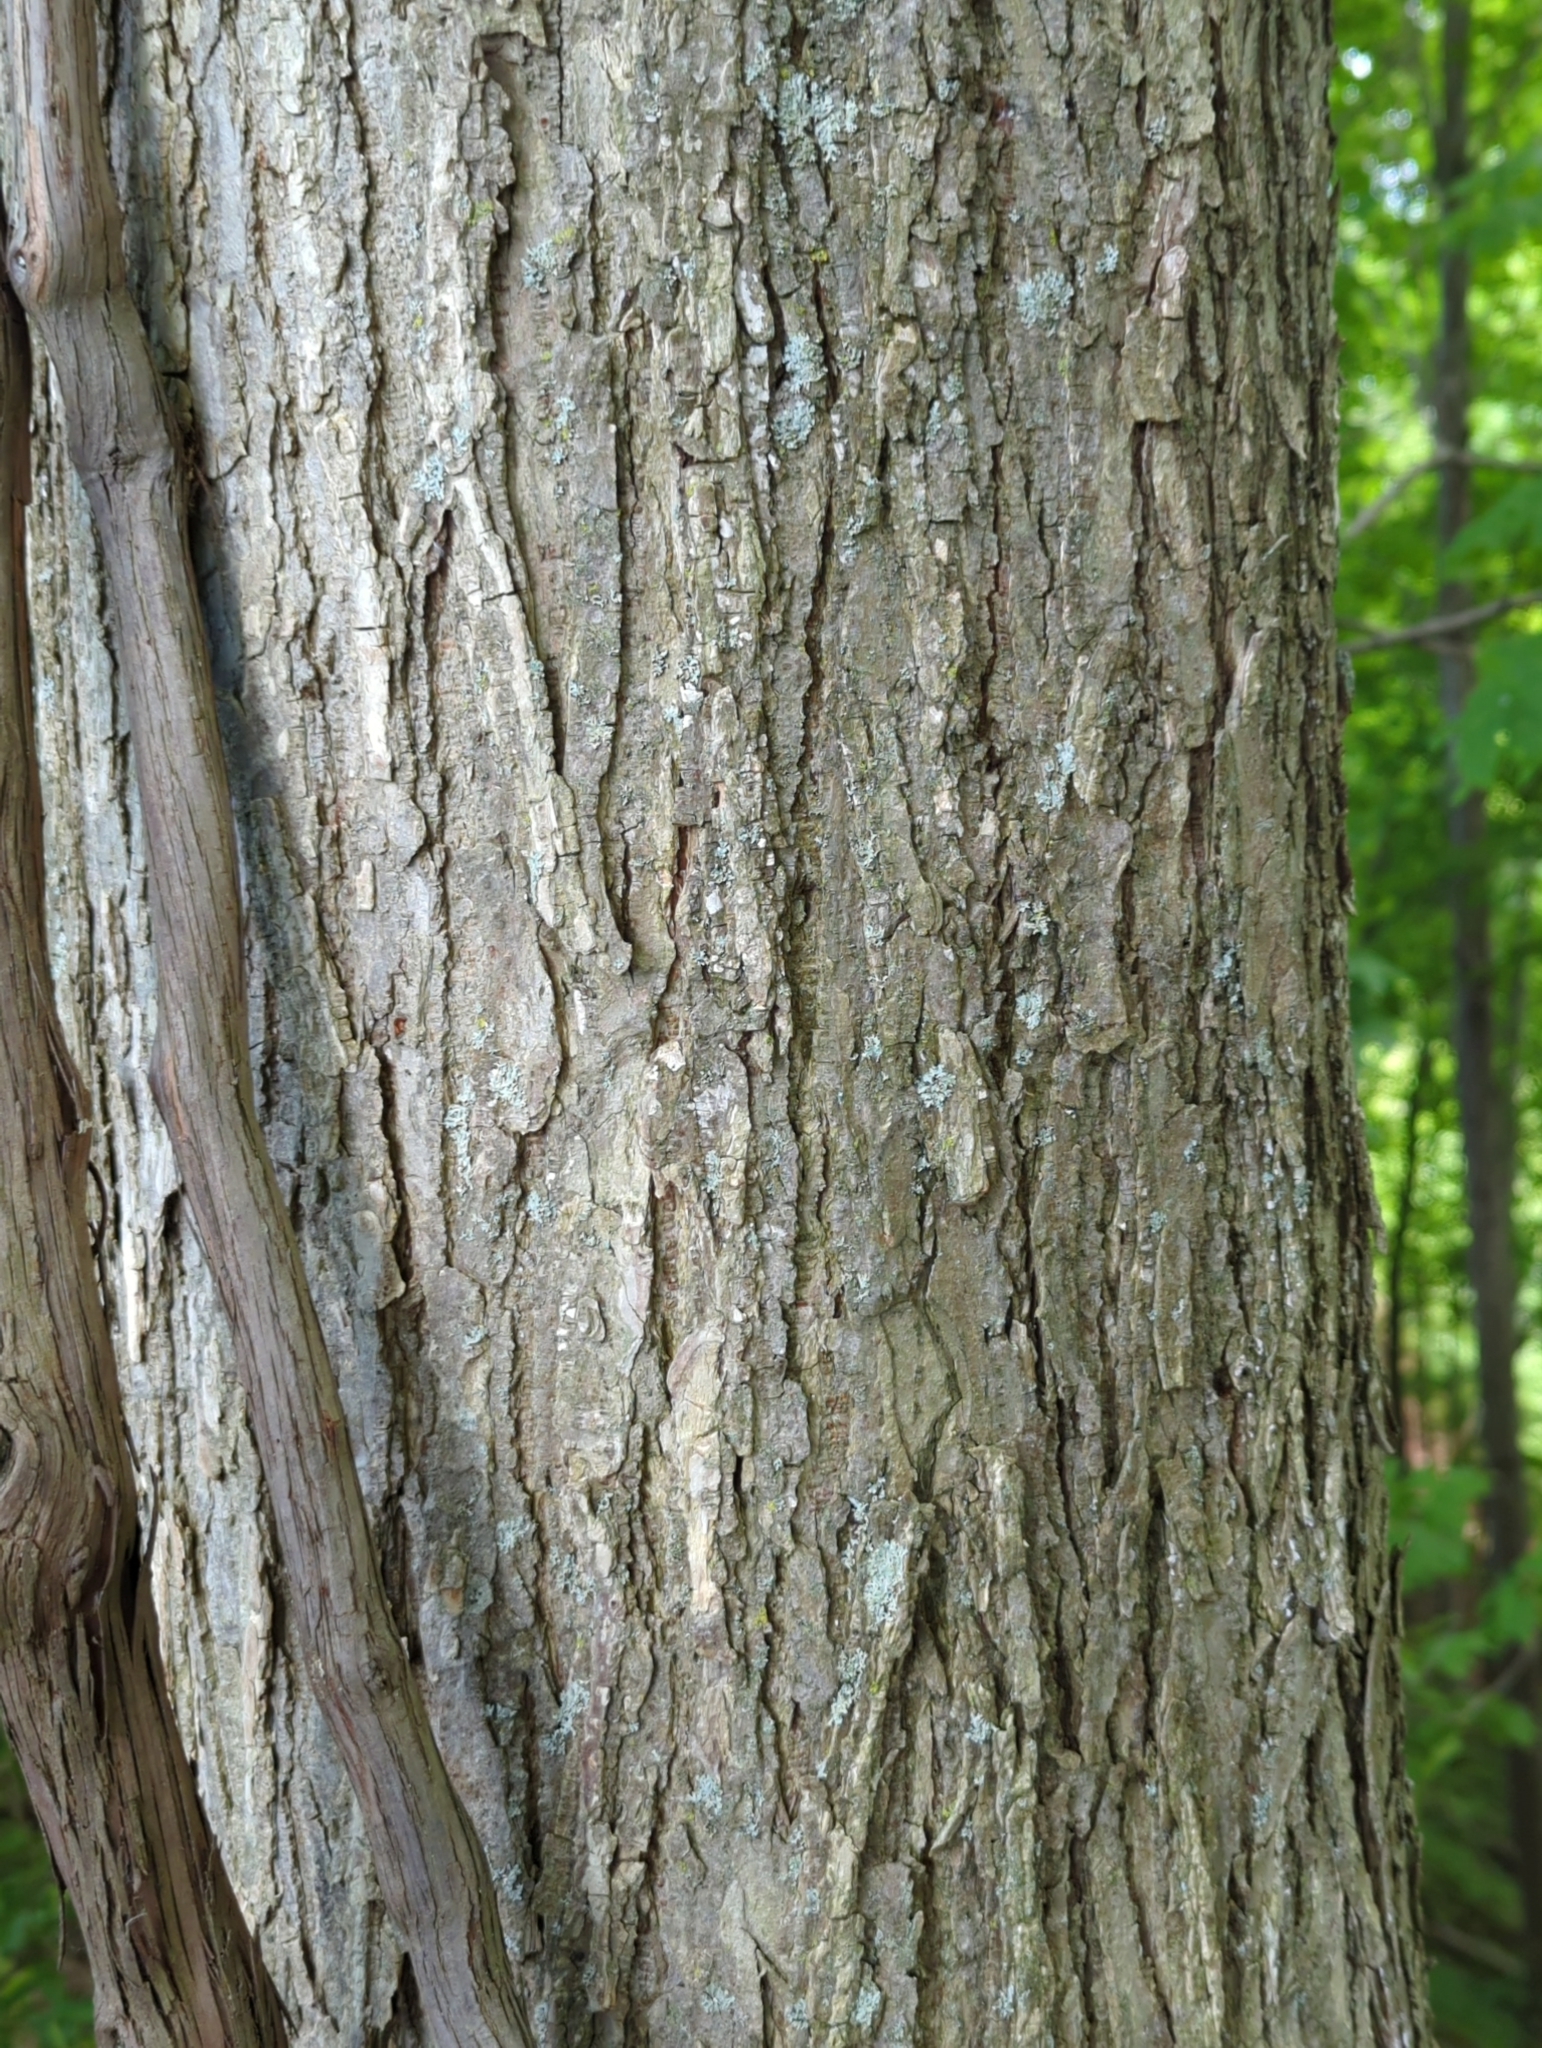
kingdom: Plantae
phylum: Tracheophyta
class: Magnoliopsida
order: Rosales
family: Ulmaceae
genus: Ulmus
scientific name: Ulmus americana
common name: American elm
